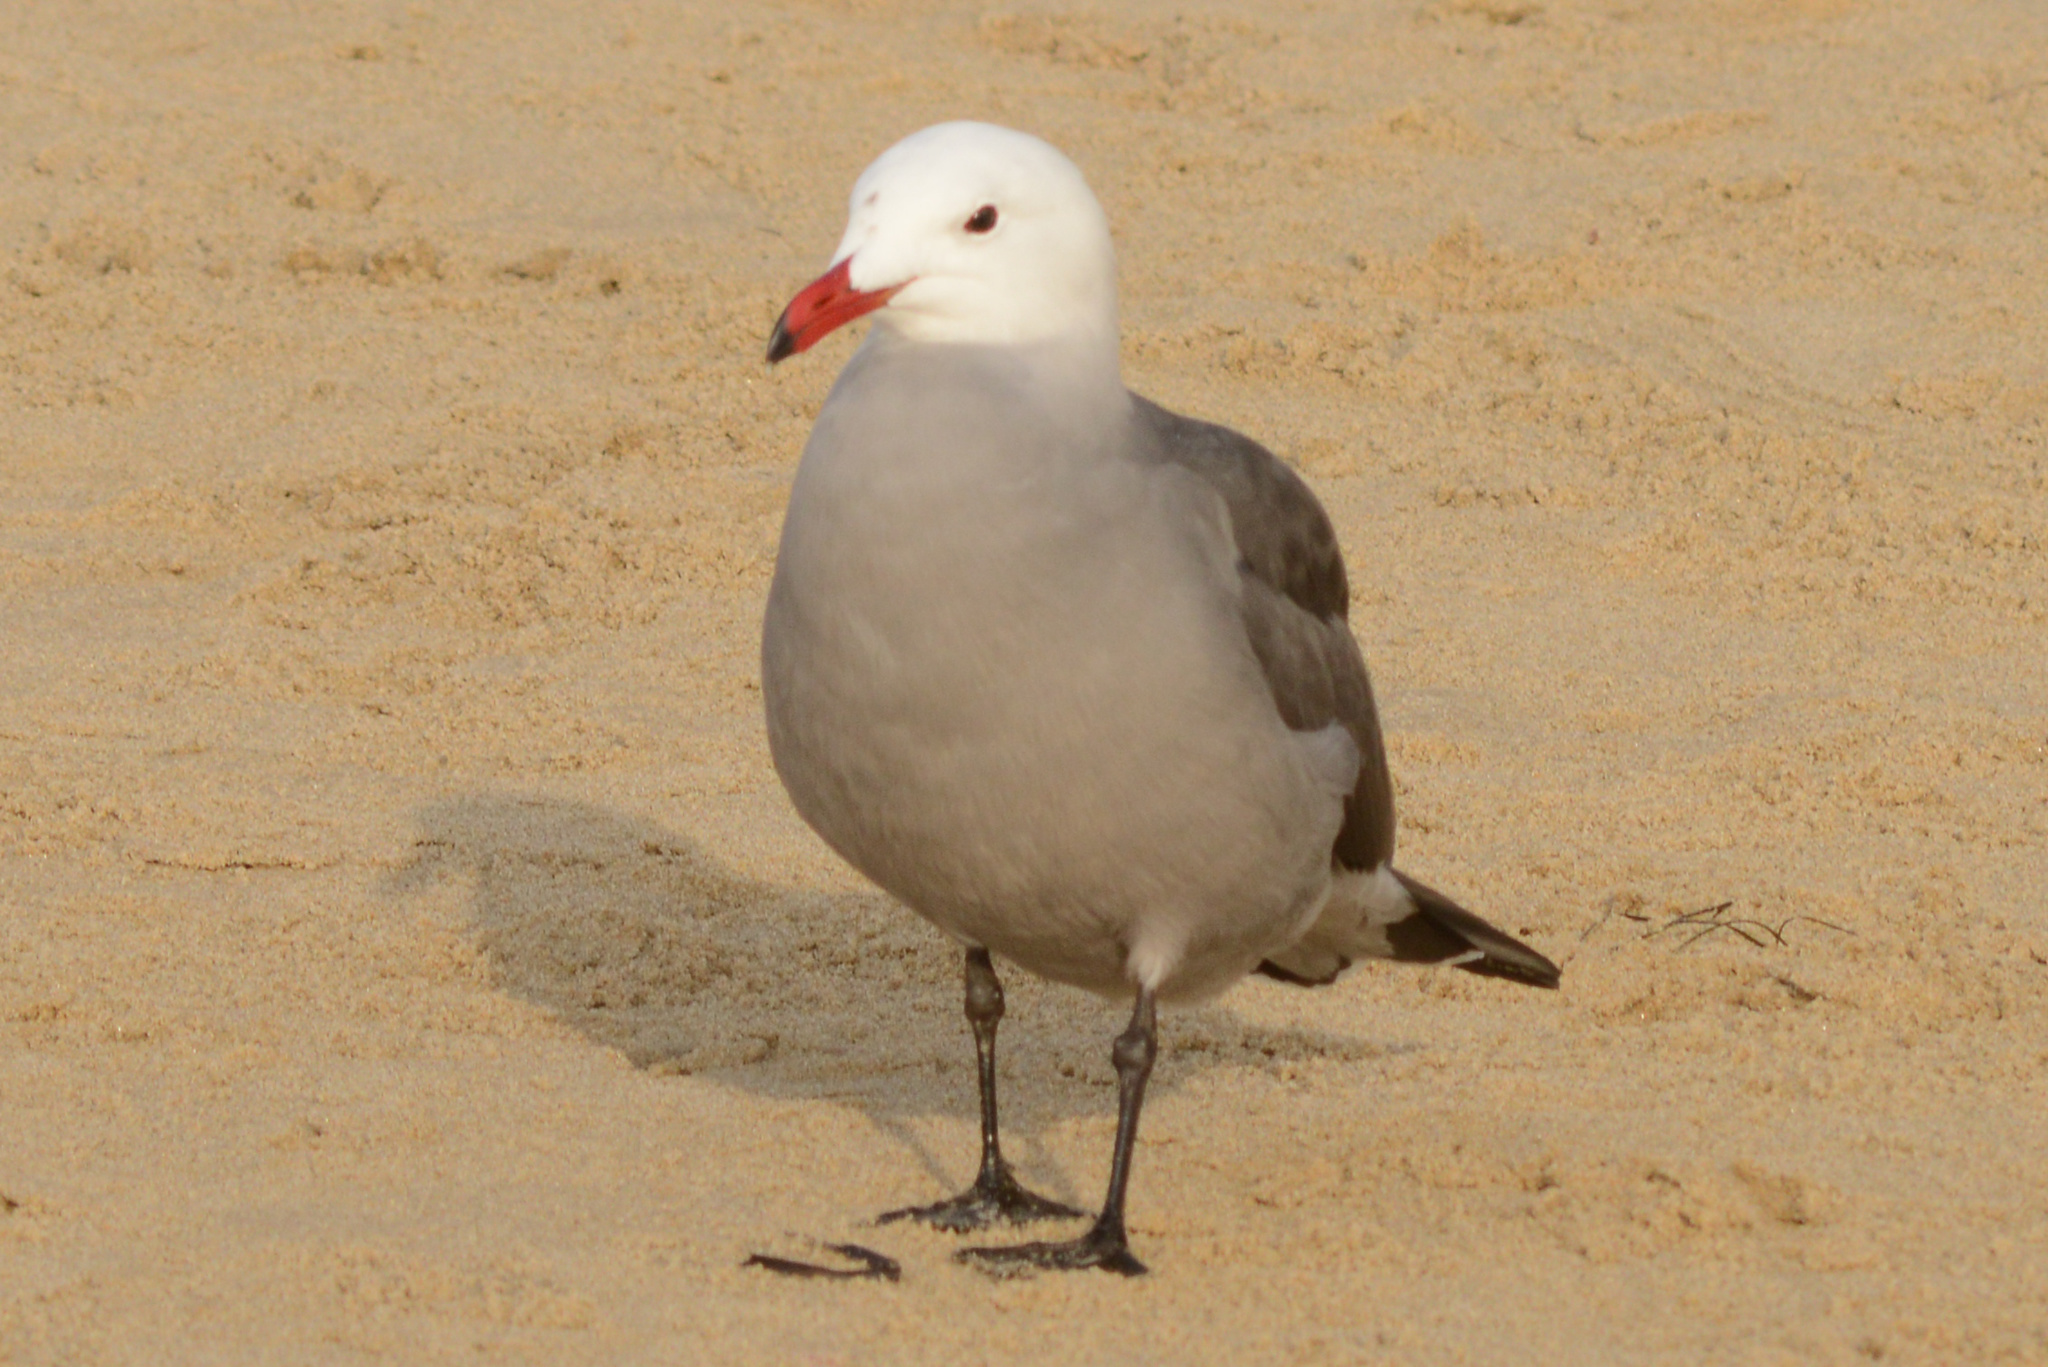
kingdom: Animalia
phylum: Chordata
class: Aves
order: Charadriiformes
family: Laridae
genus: Larus
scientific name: Larus heermanni
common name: Heermann's gull
